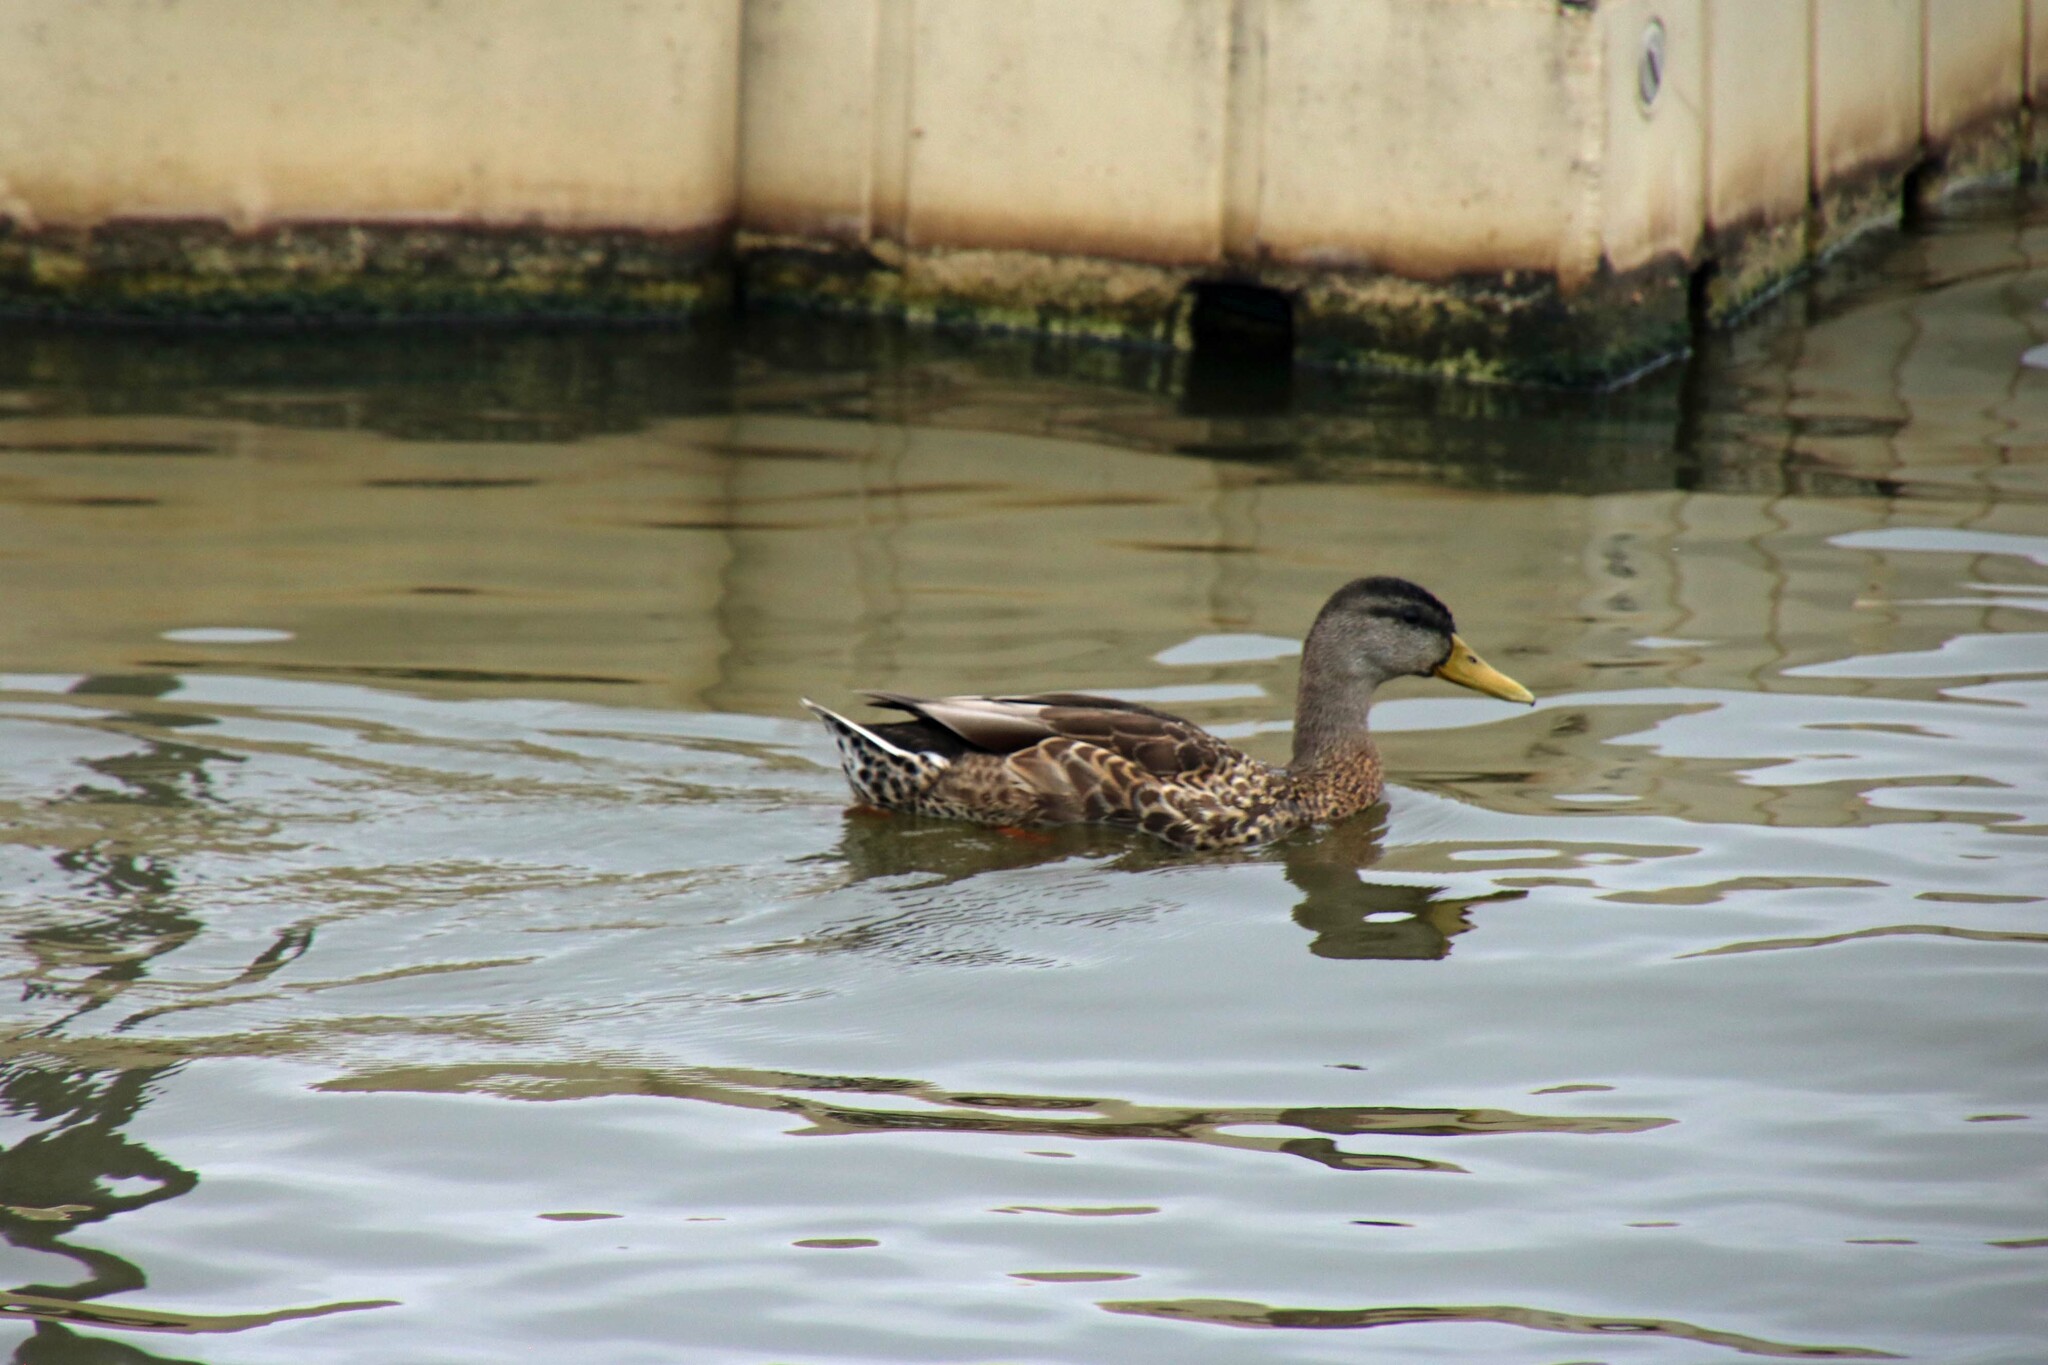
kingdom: Animalia
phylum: Chordata
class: Aves
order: Anseriformes
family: Anatidae
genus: Anas
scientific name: Anas platyrhynchos
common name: Mallard
